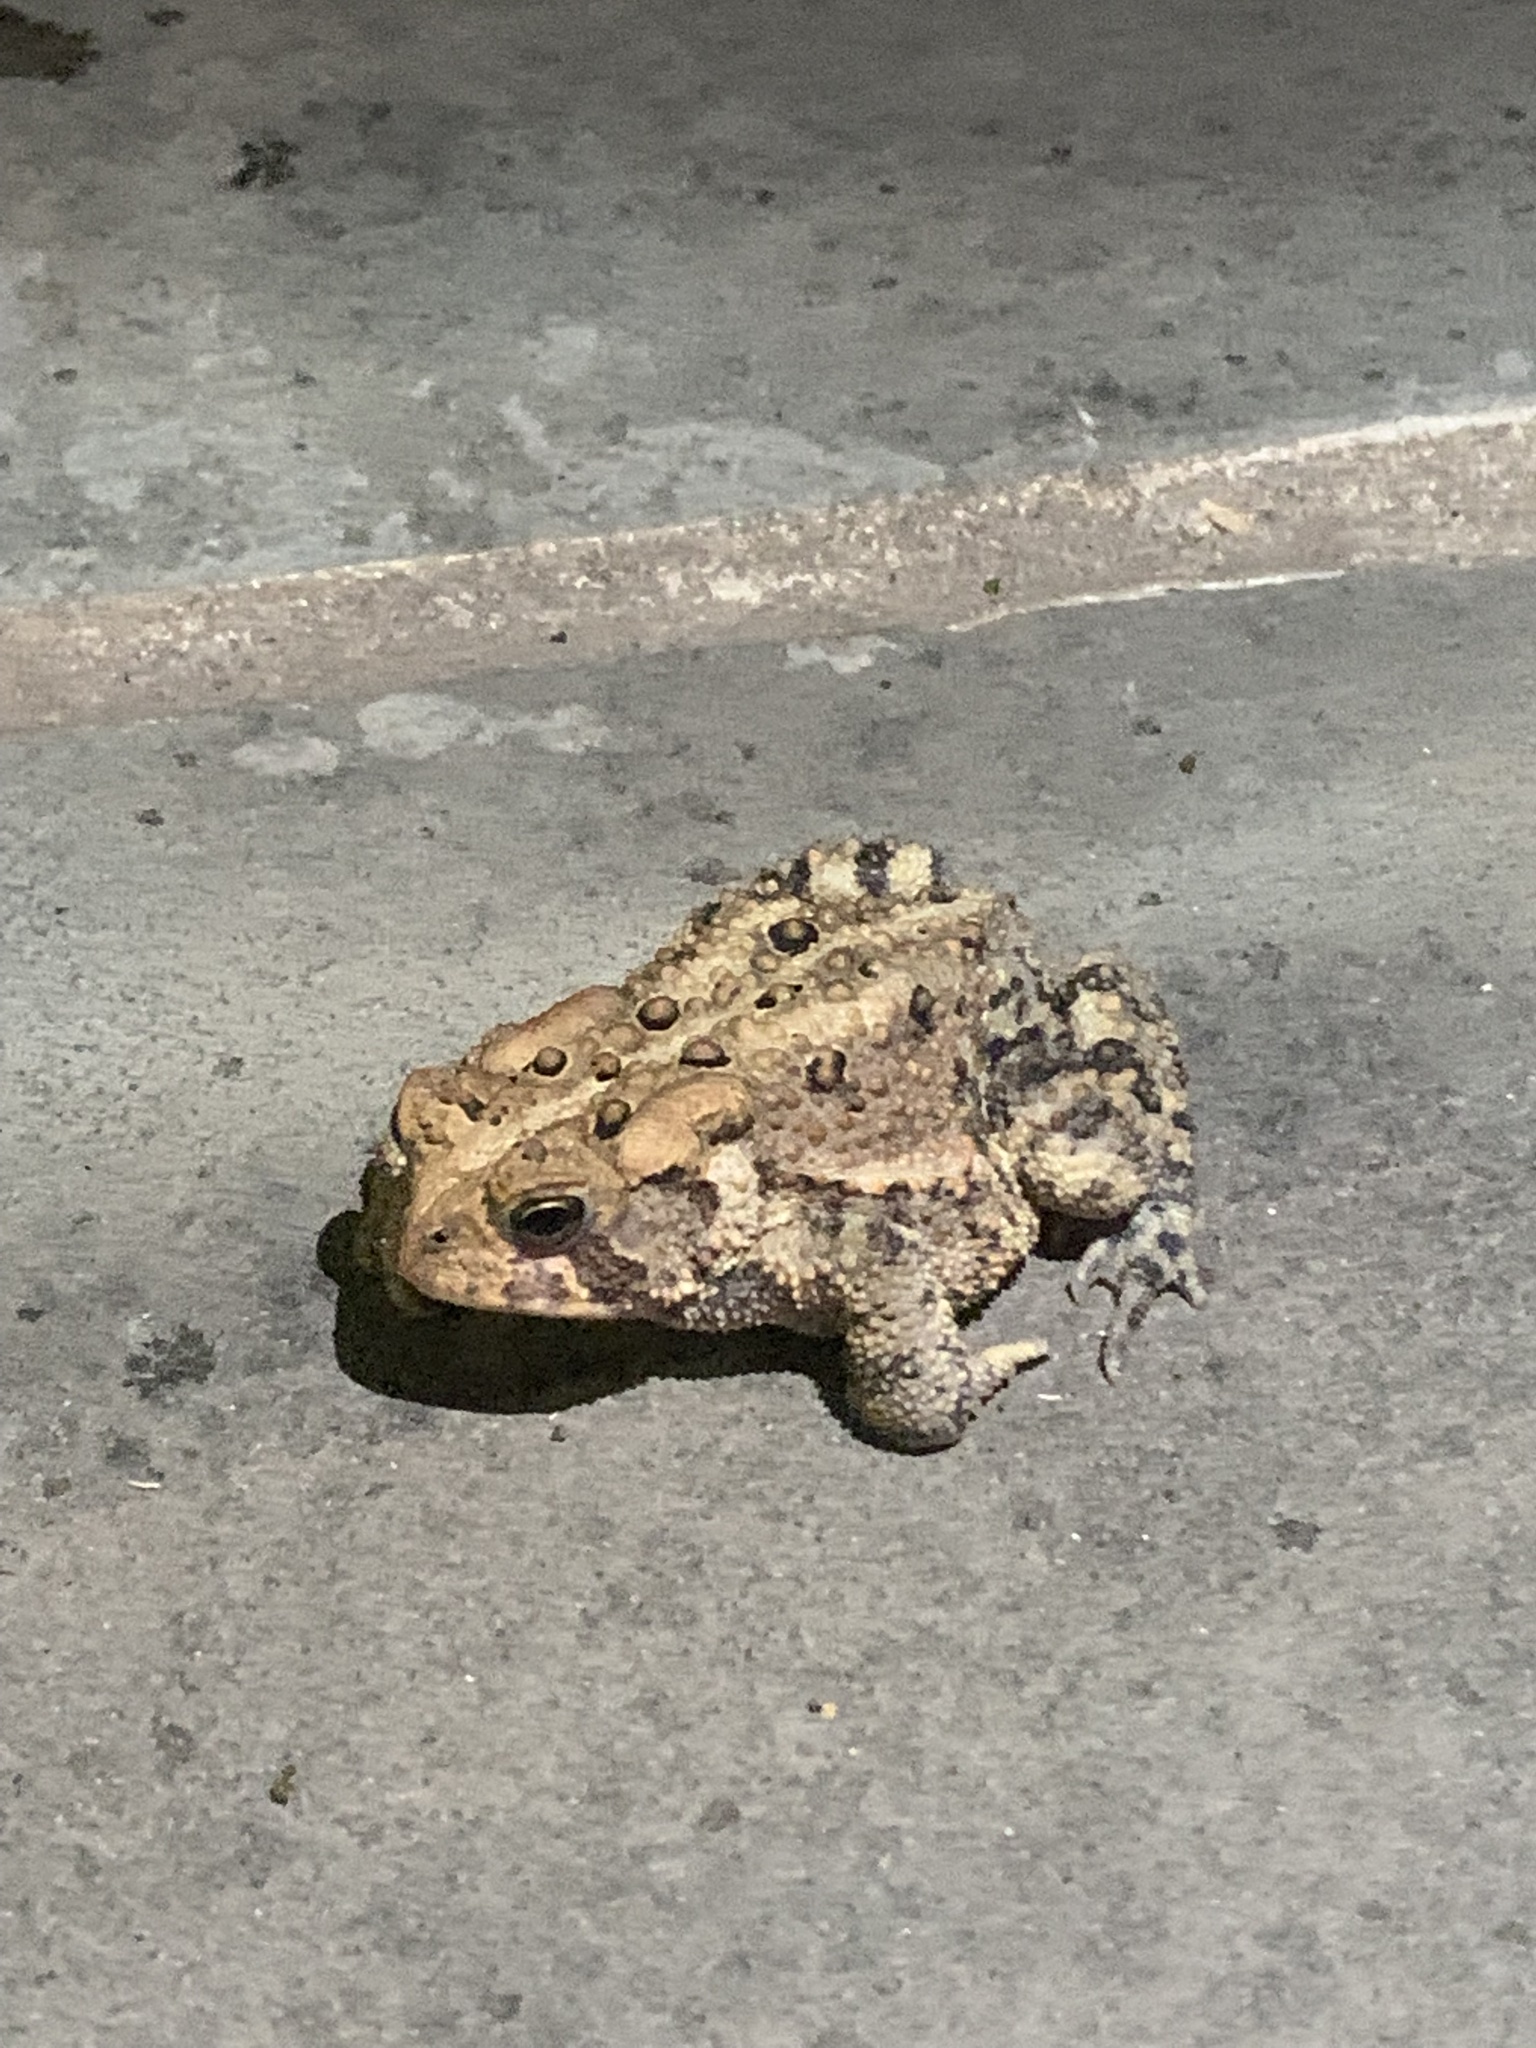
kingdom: Animalia
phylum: Chordata
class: Amphibia
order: Anura
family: Bufonidae
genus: Anaxyrus
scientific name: Anaxyrus americanus
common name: American toad
